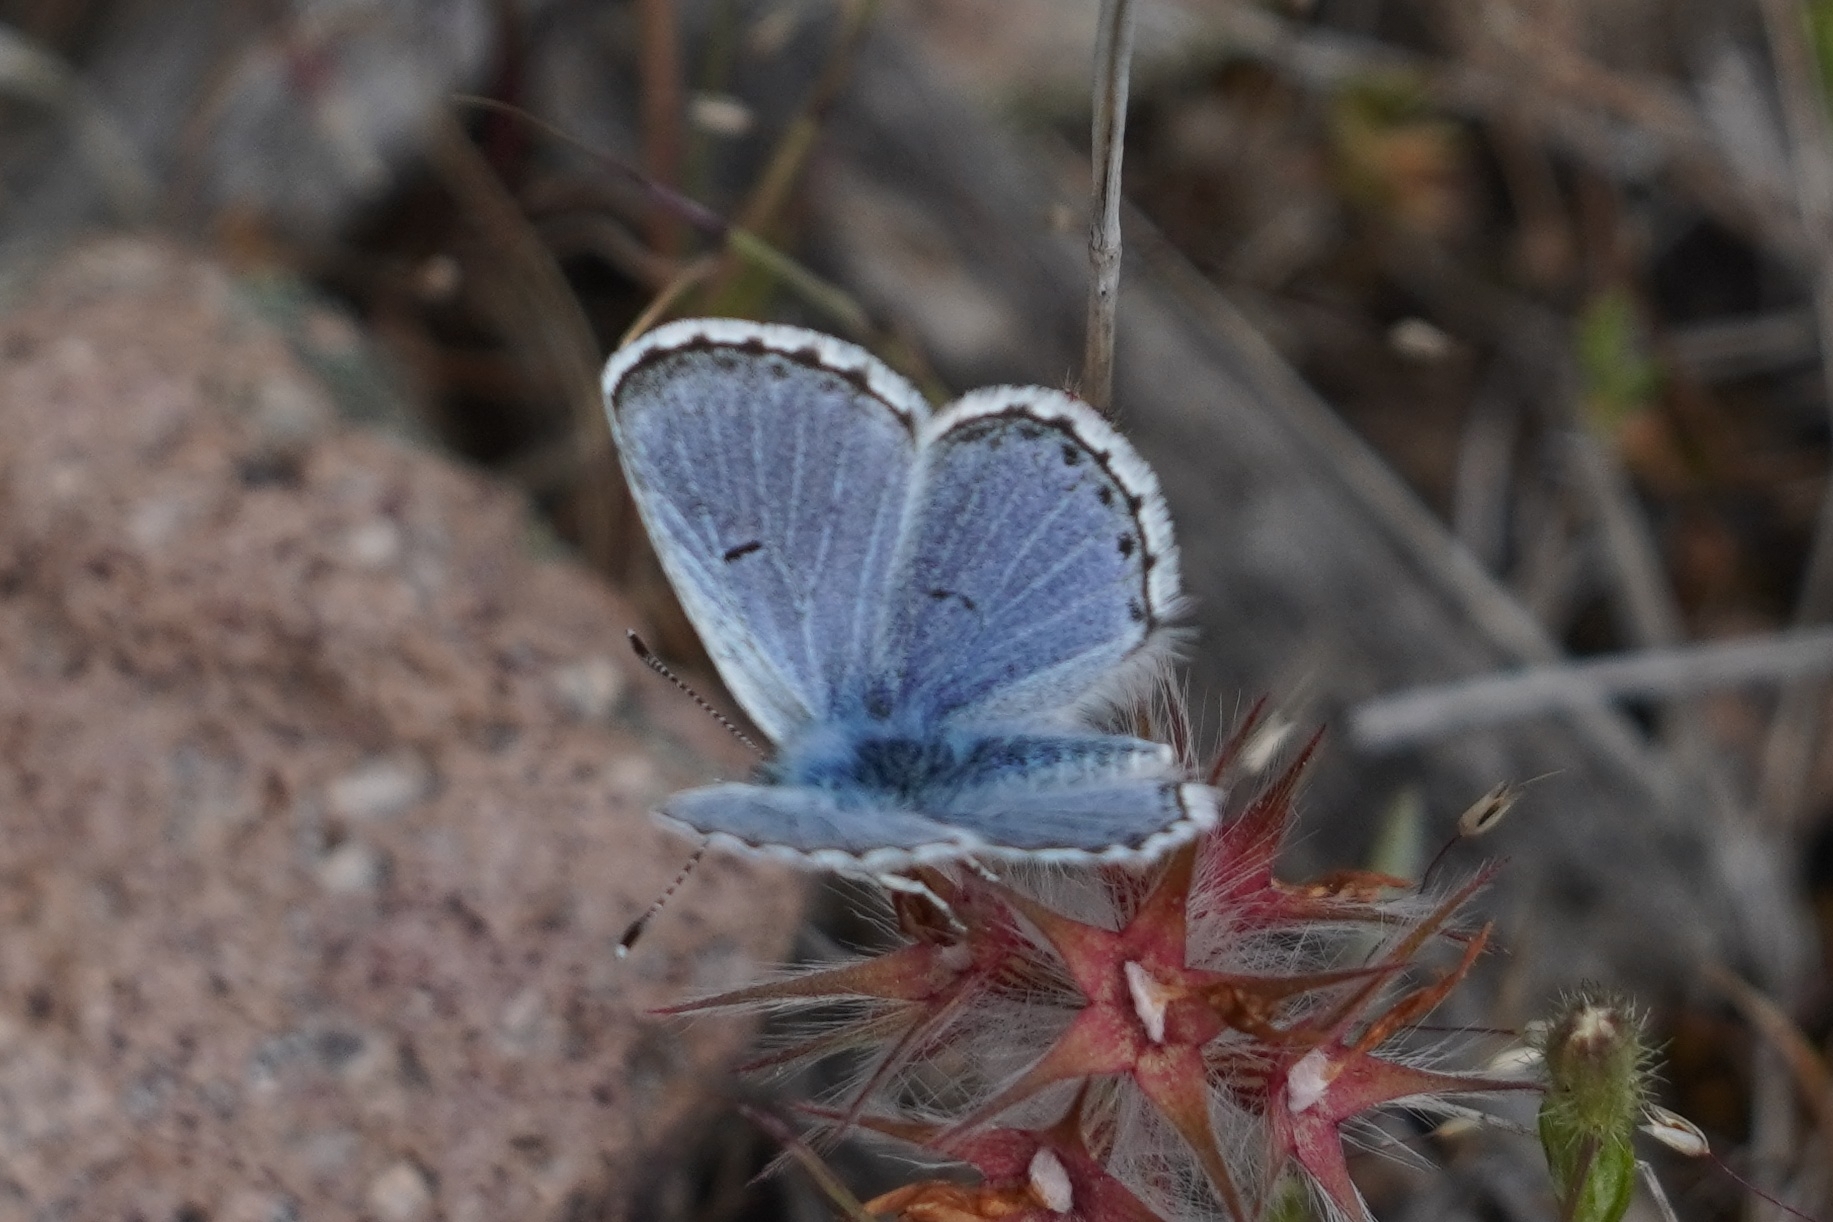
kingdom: Animalia
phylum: Arthropoda
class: Insecta
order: Lepidoptera
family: Lycaenidae
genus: Pseudophilotes
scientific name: Pseudophilotes baton
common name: Baton blue
